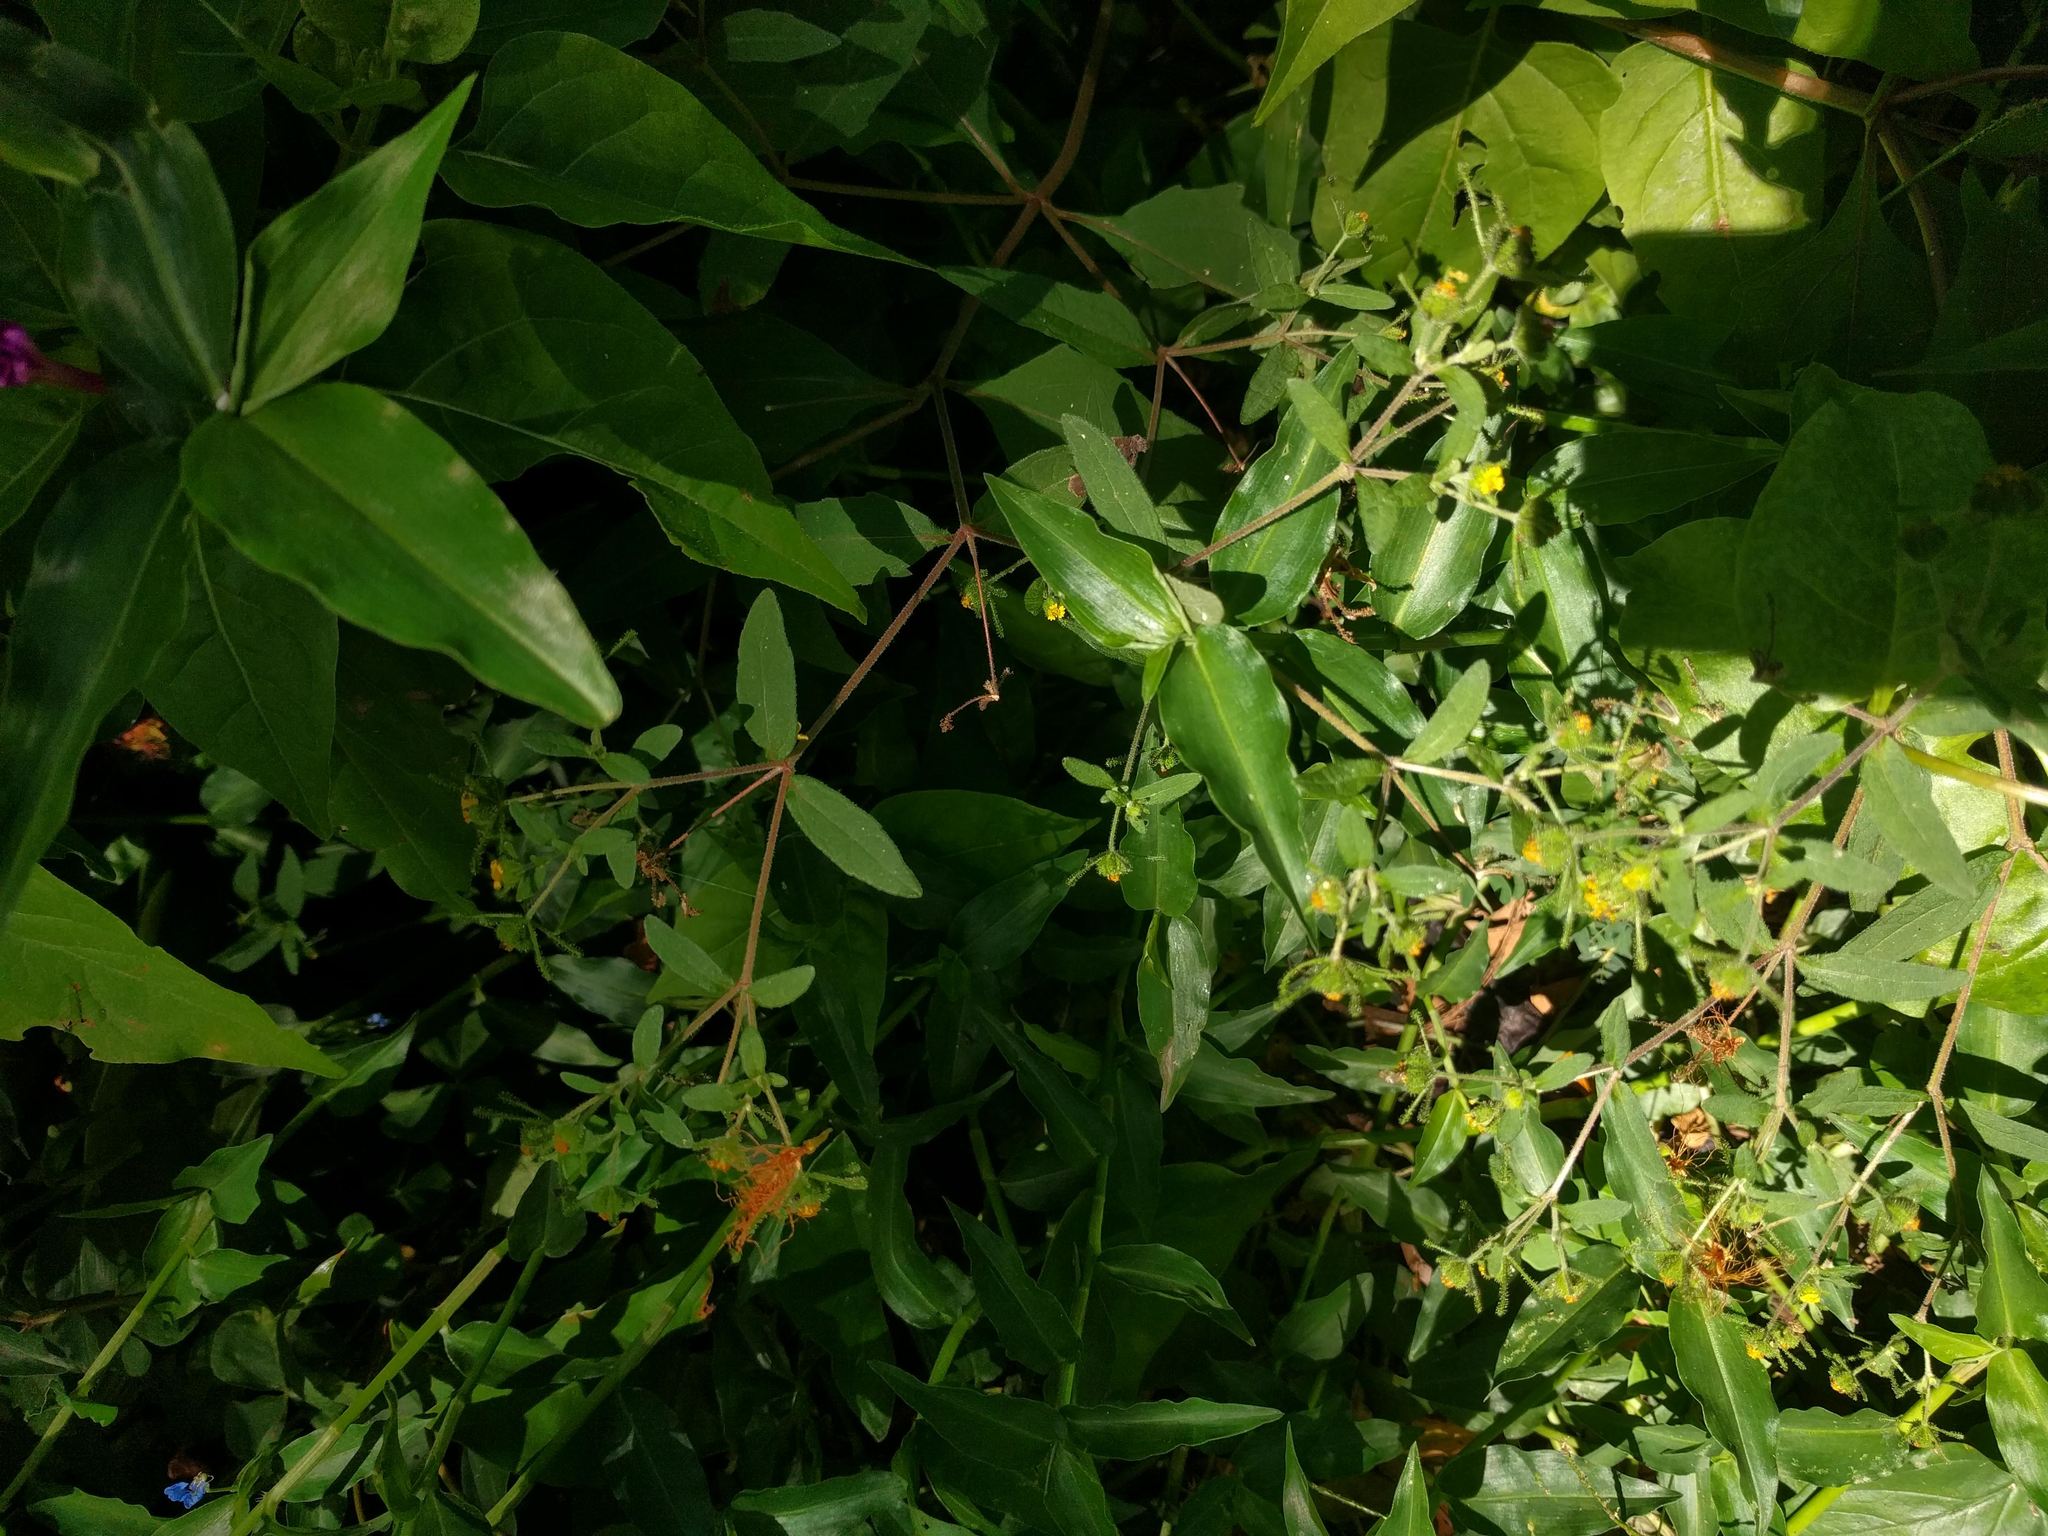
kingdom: Plantae
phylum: Tracheophyta
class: Magnoliopsida
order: Asterales
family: Asteraceae
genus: Sigesbeckia
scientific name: Sigesbeckia orientalis
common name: Eastern st paul's-wort
